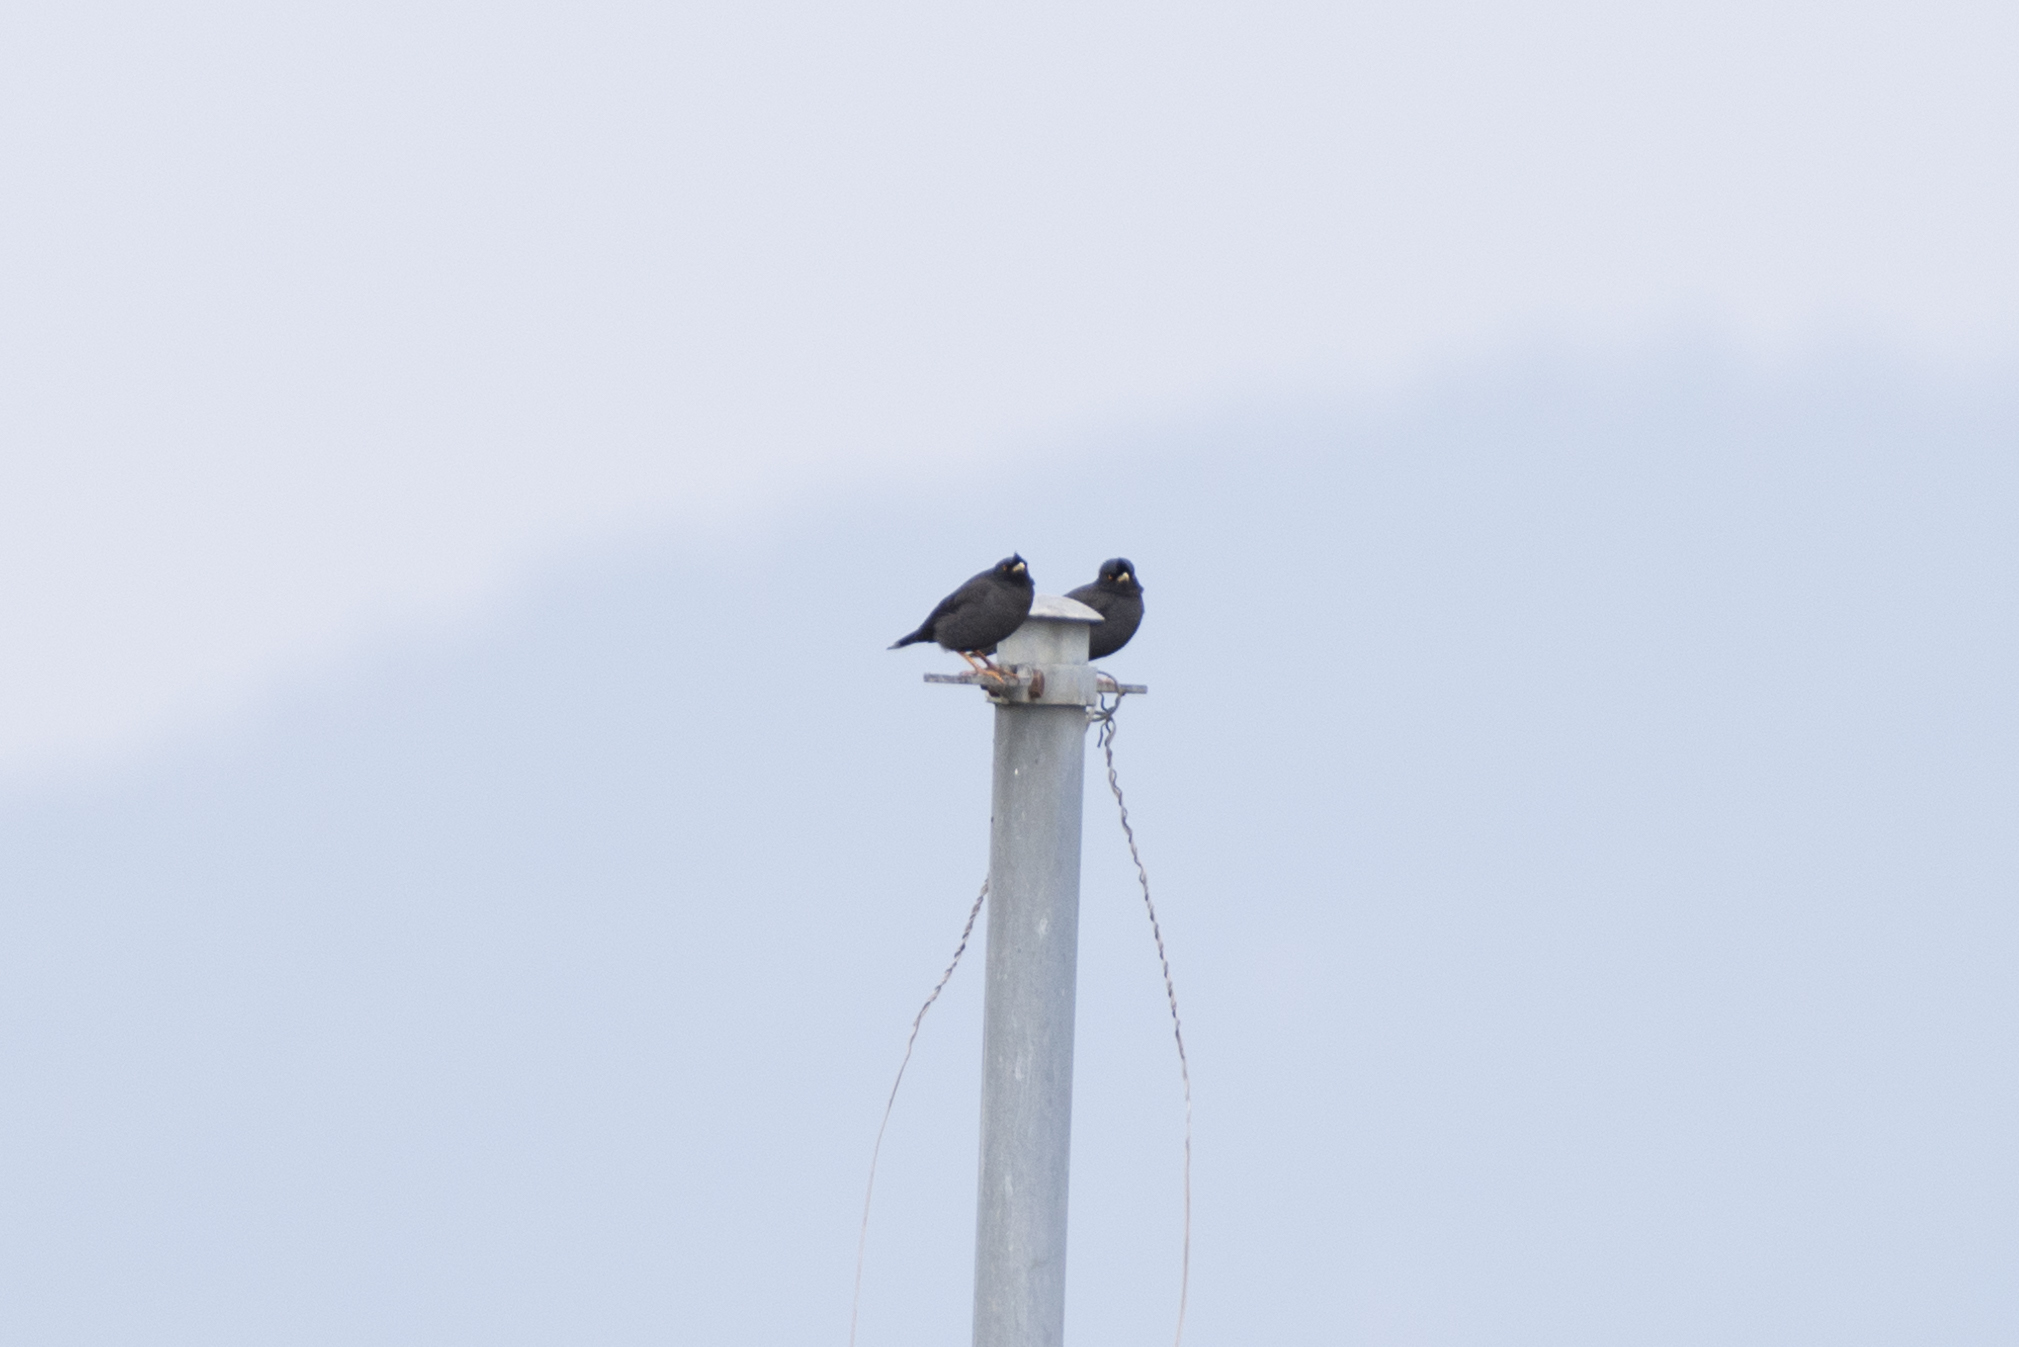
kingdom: Animalia
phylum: Chordata
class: Aves
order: Passeriformes
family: Sturnidae
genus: Acridotheres
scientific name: Acridotheres cristatellus
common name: Crested myna
